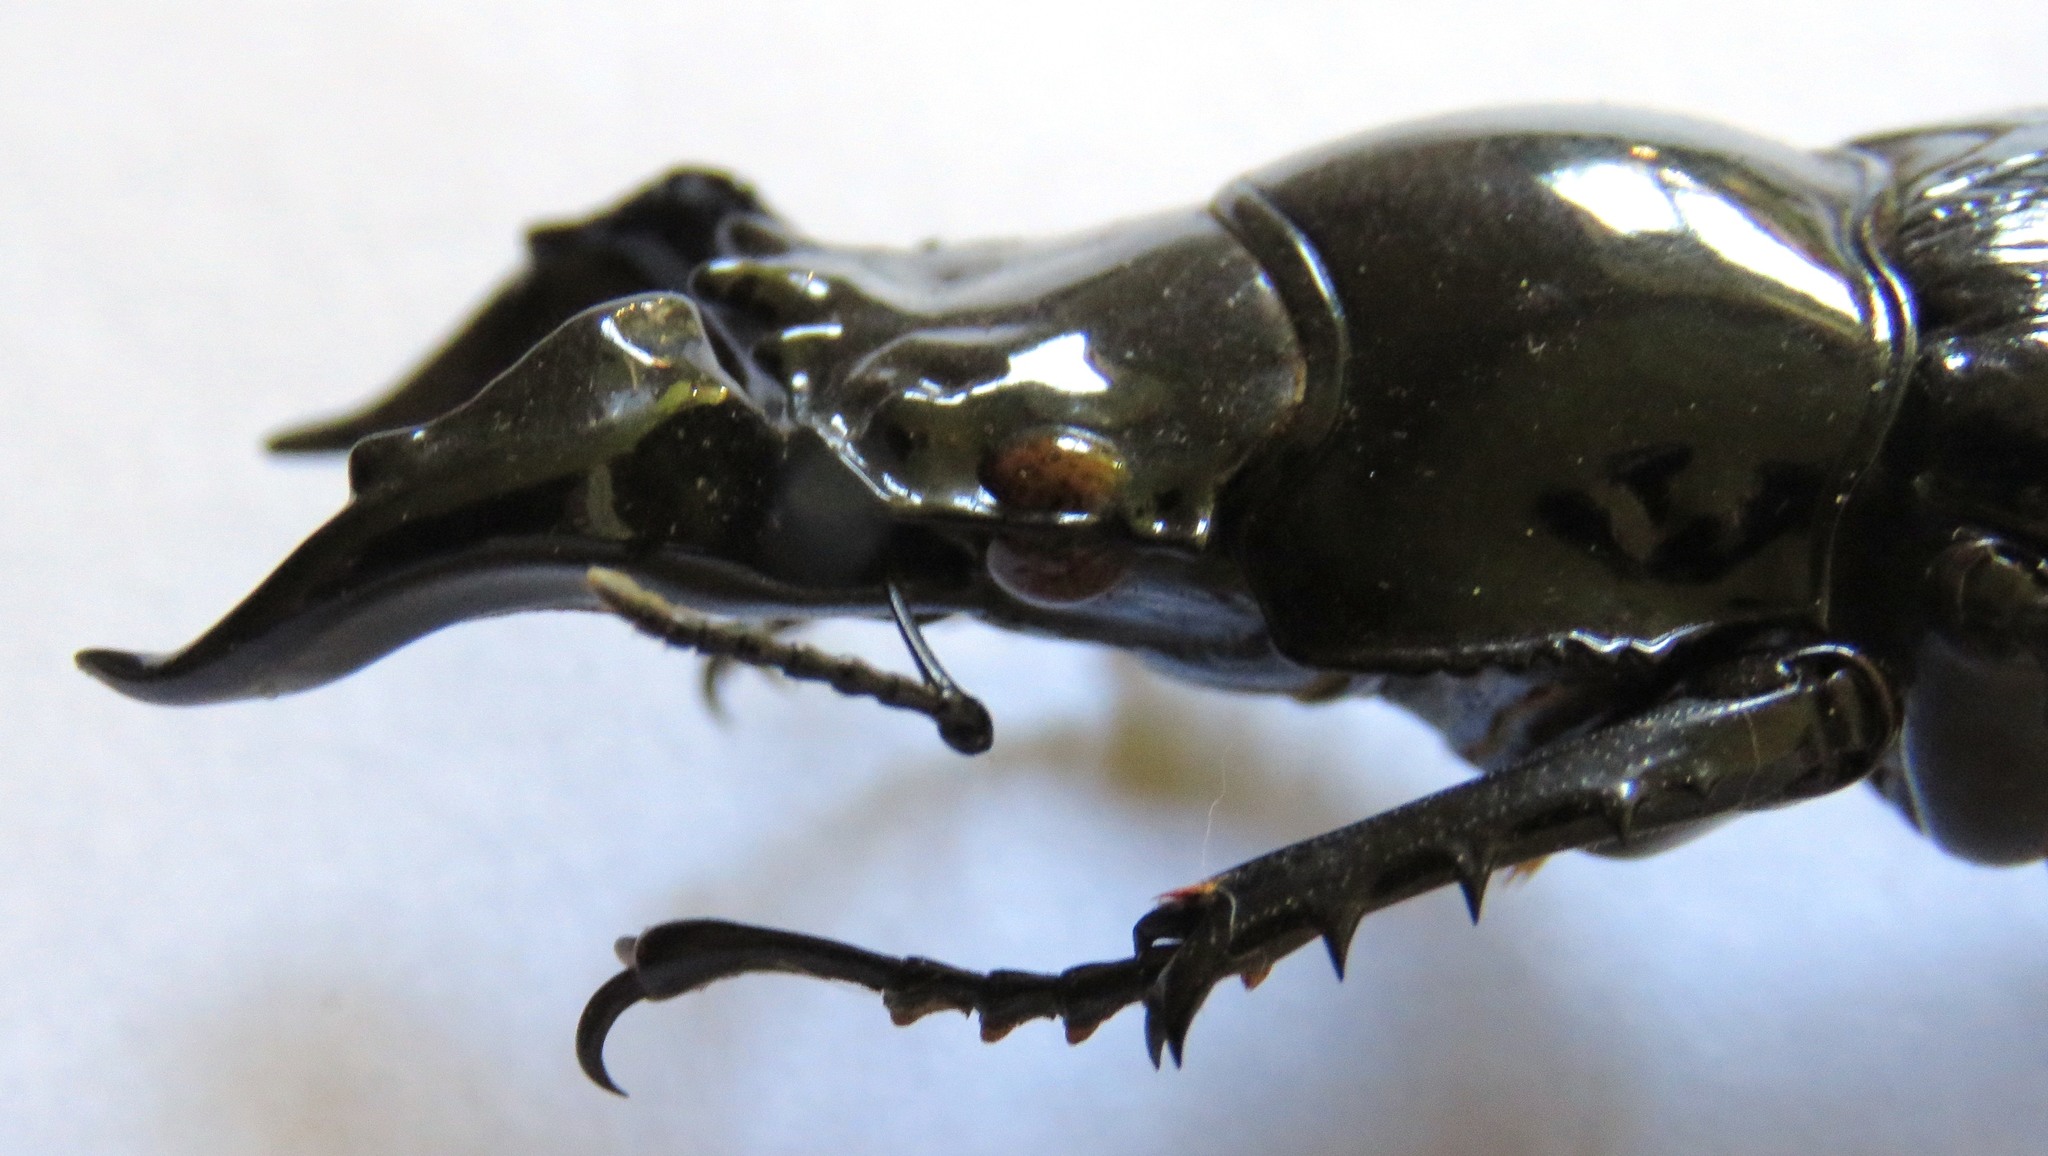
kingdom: Animalia
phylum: Arthropoda
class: Insecta
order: Coleoptera
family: Lucanidae
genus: Mesotopus
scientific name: Mesotopus imperator
